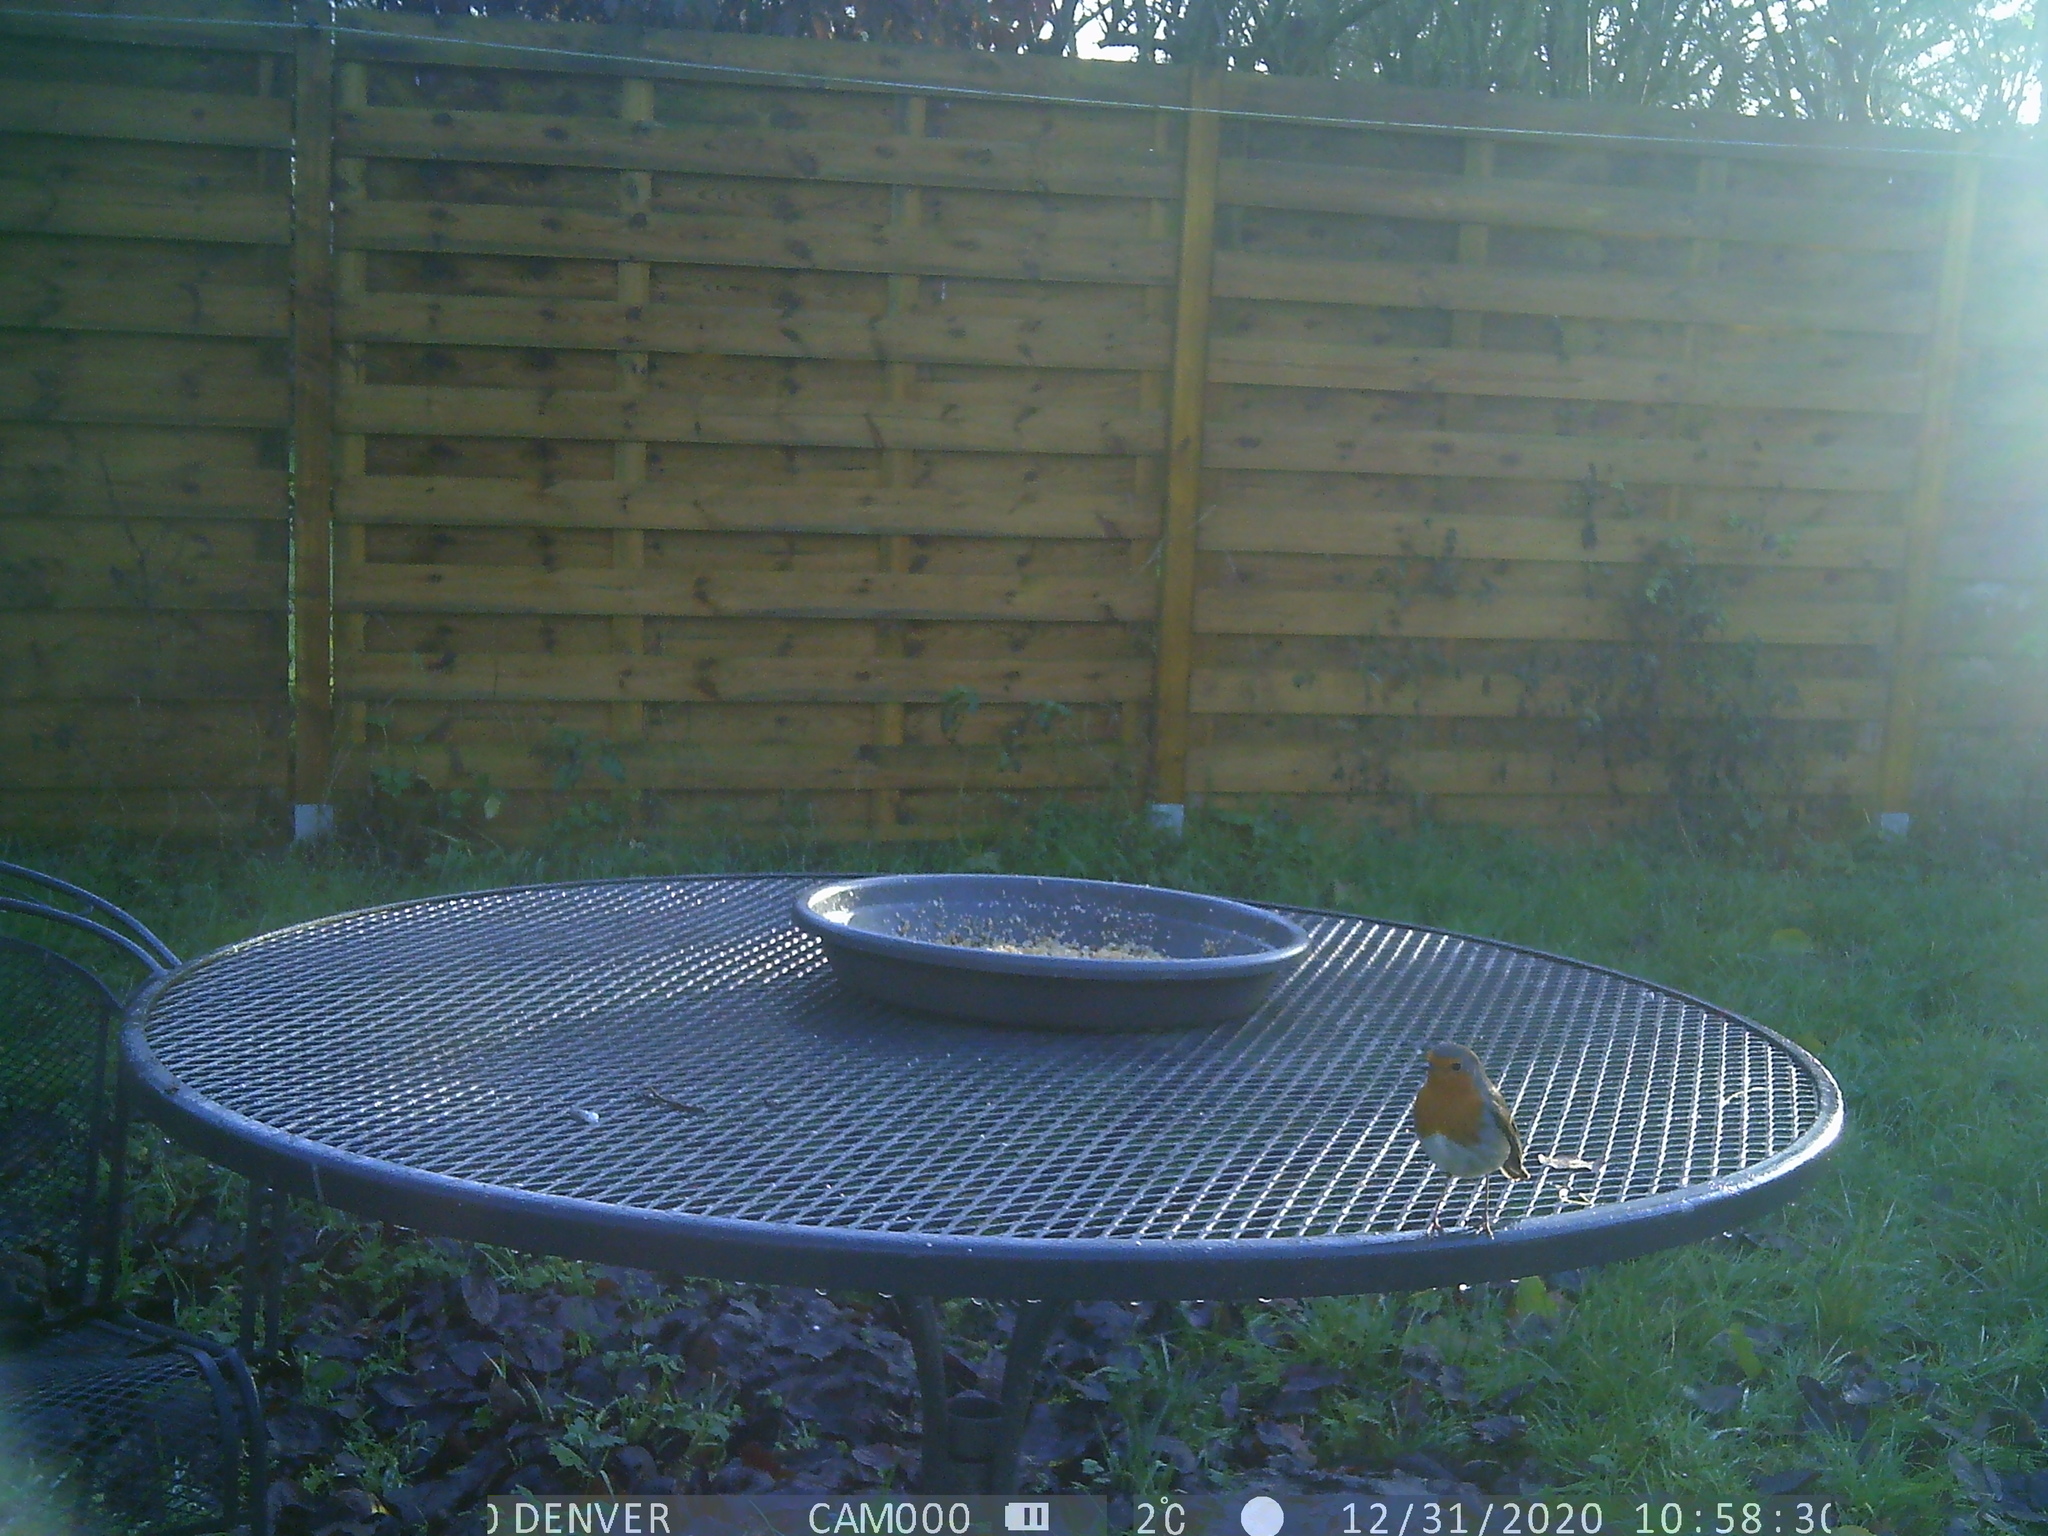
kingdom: Animalia
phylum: Chordata
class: Aves
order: Passeriformes
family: Muscicapidae
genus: Erithacus
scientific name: Erithacus rubecula
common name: European robin
